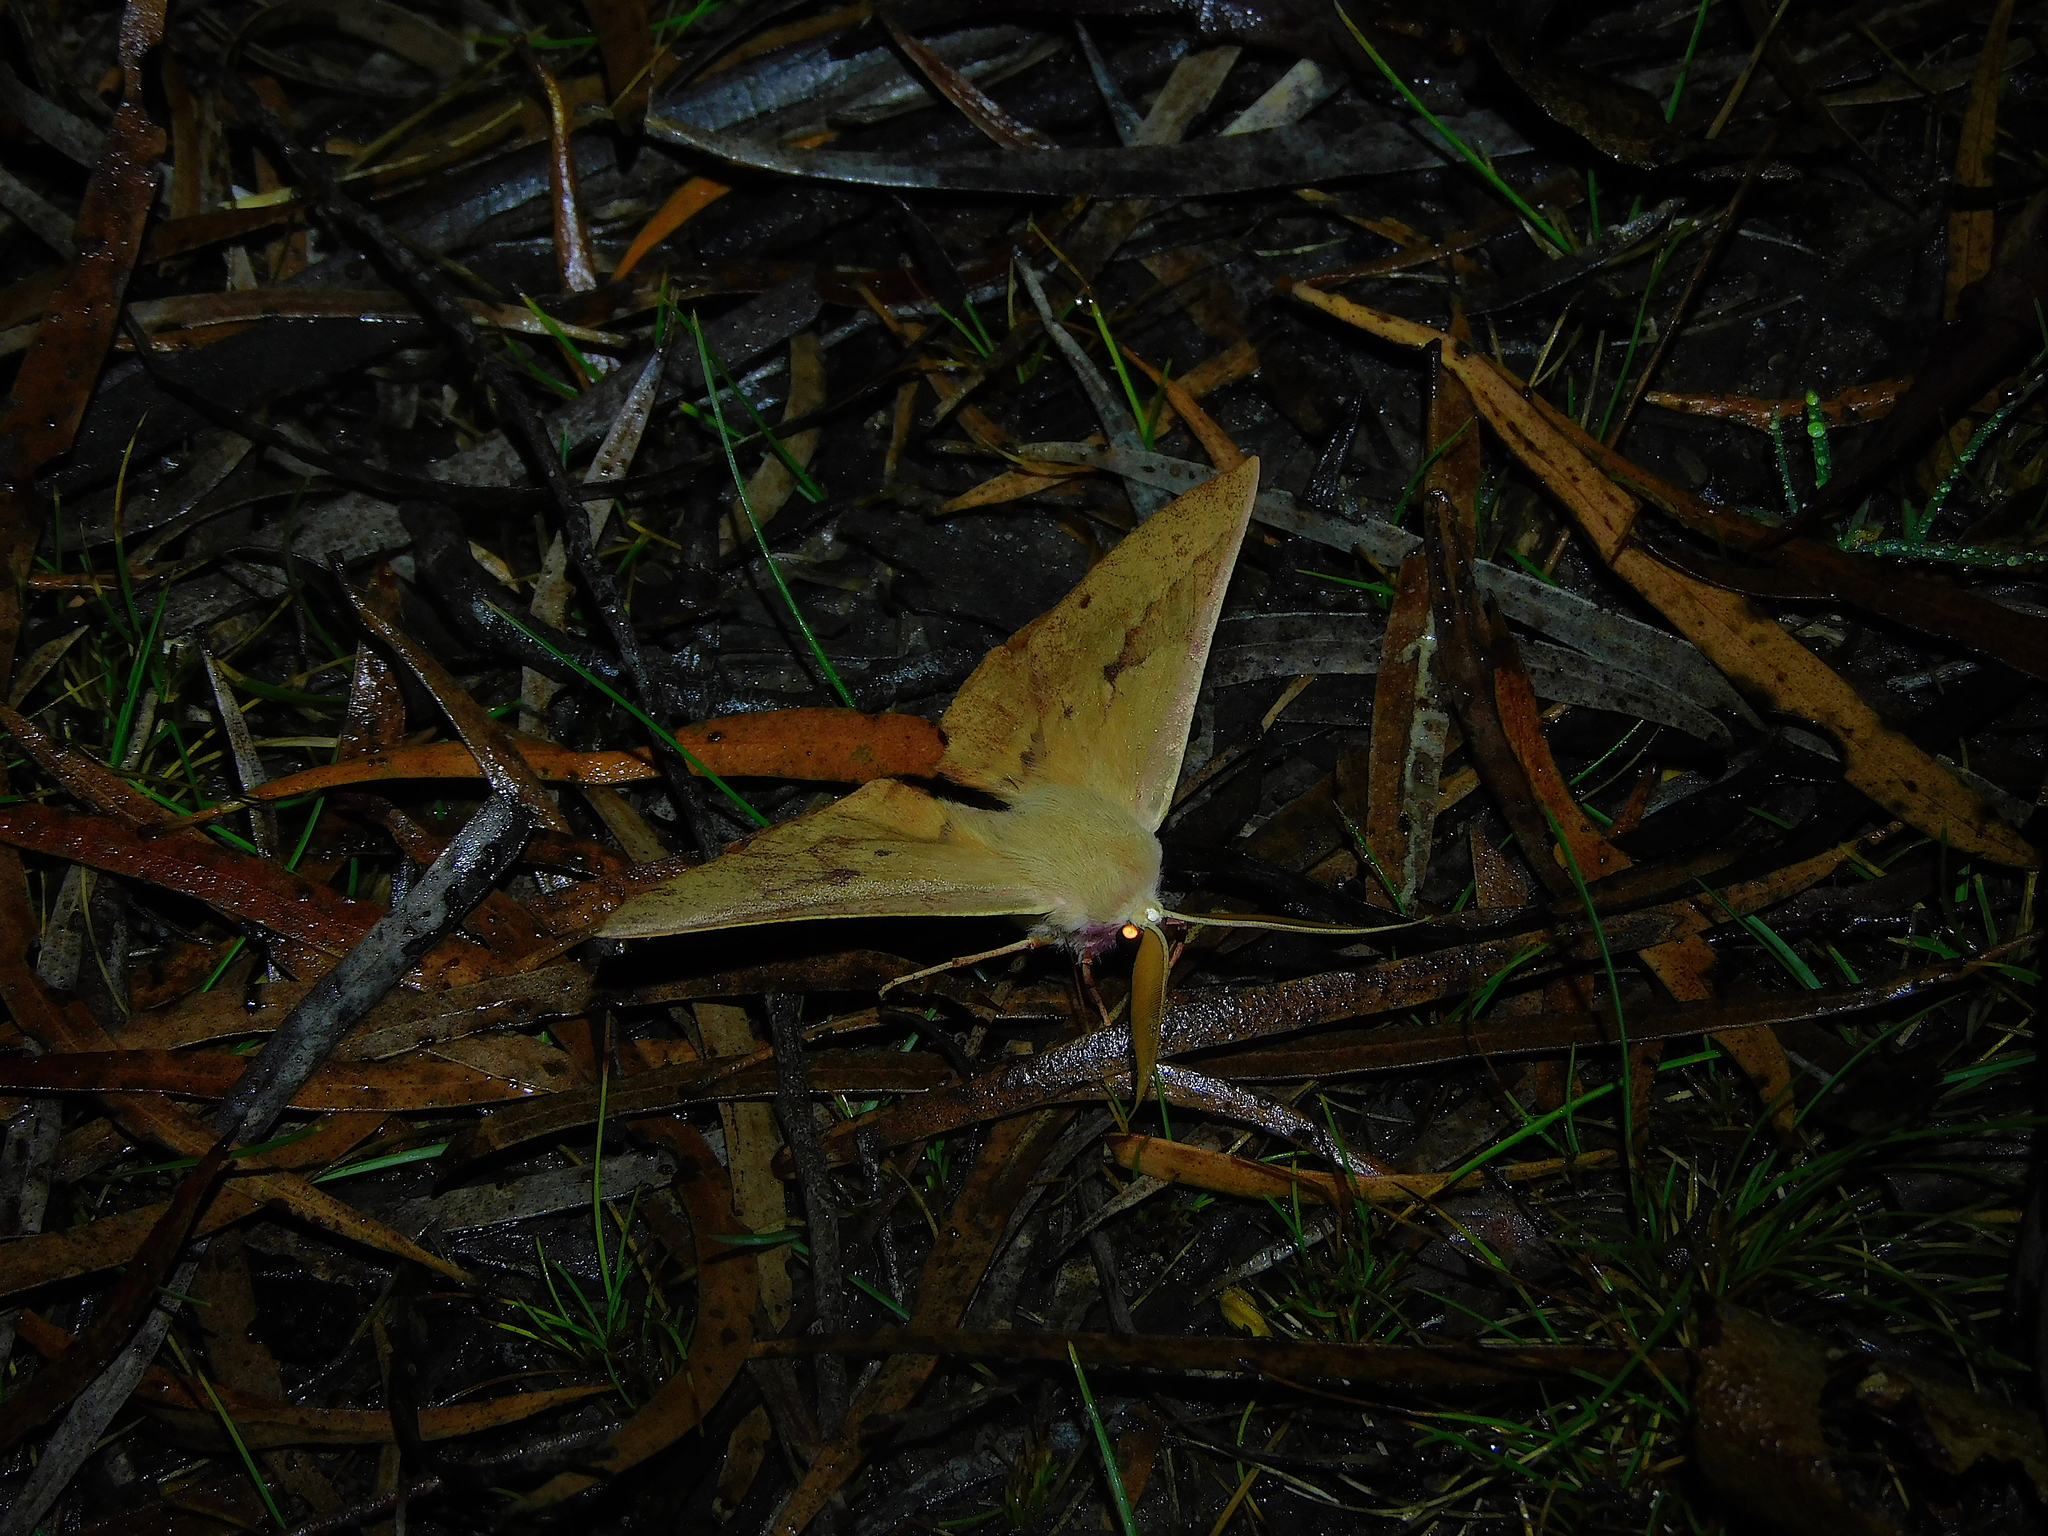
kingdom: Animalia
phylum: Arthropoda
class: Insecta
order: Lepidoptera
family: Geometridae
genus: Monoctenia
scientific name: Monoctenia falernaria
